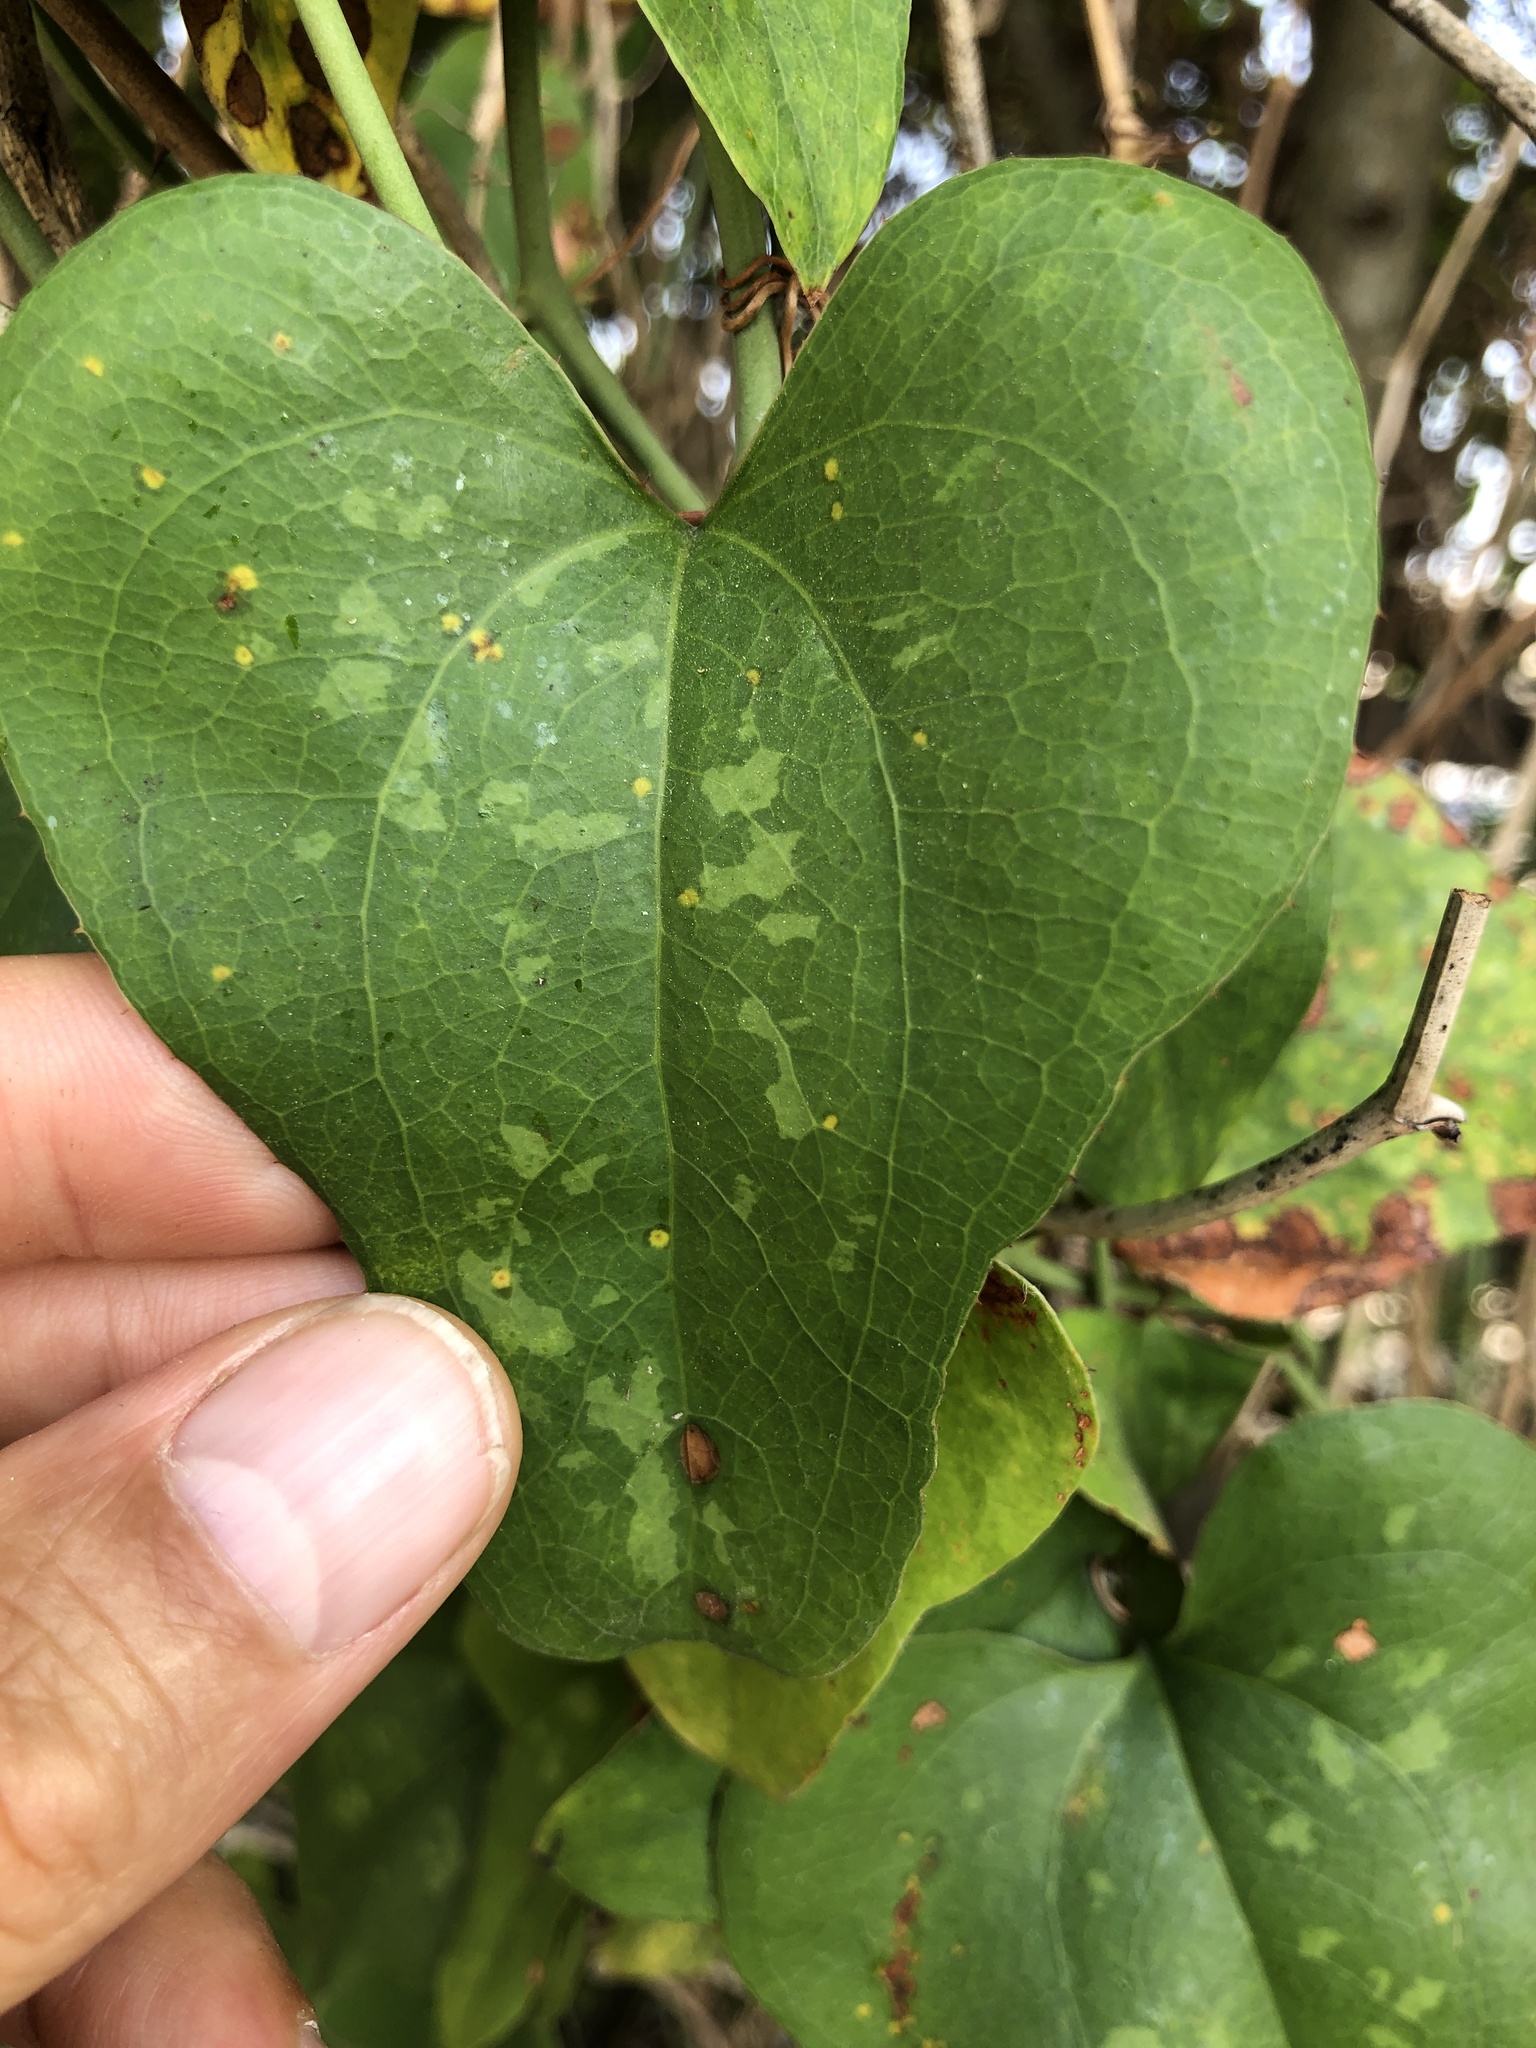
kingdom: Plantae
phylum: Tracheophyta
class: Liliopsida
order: Liliales
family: Smilacaceae
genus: Smilax
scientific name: Smilax bona-nox
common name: Catbrier
